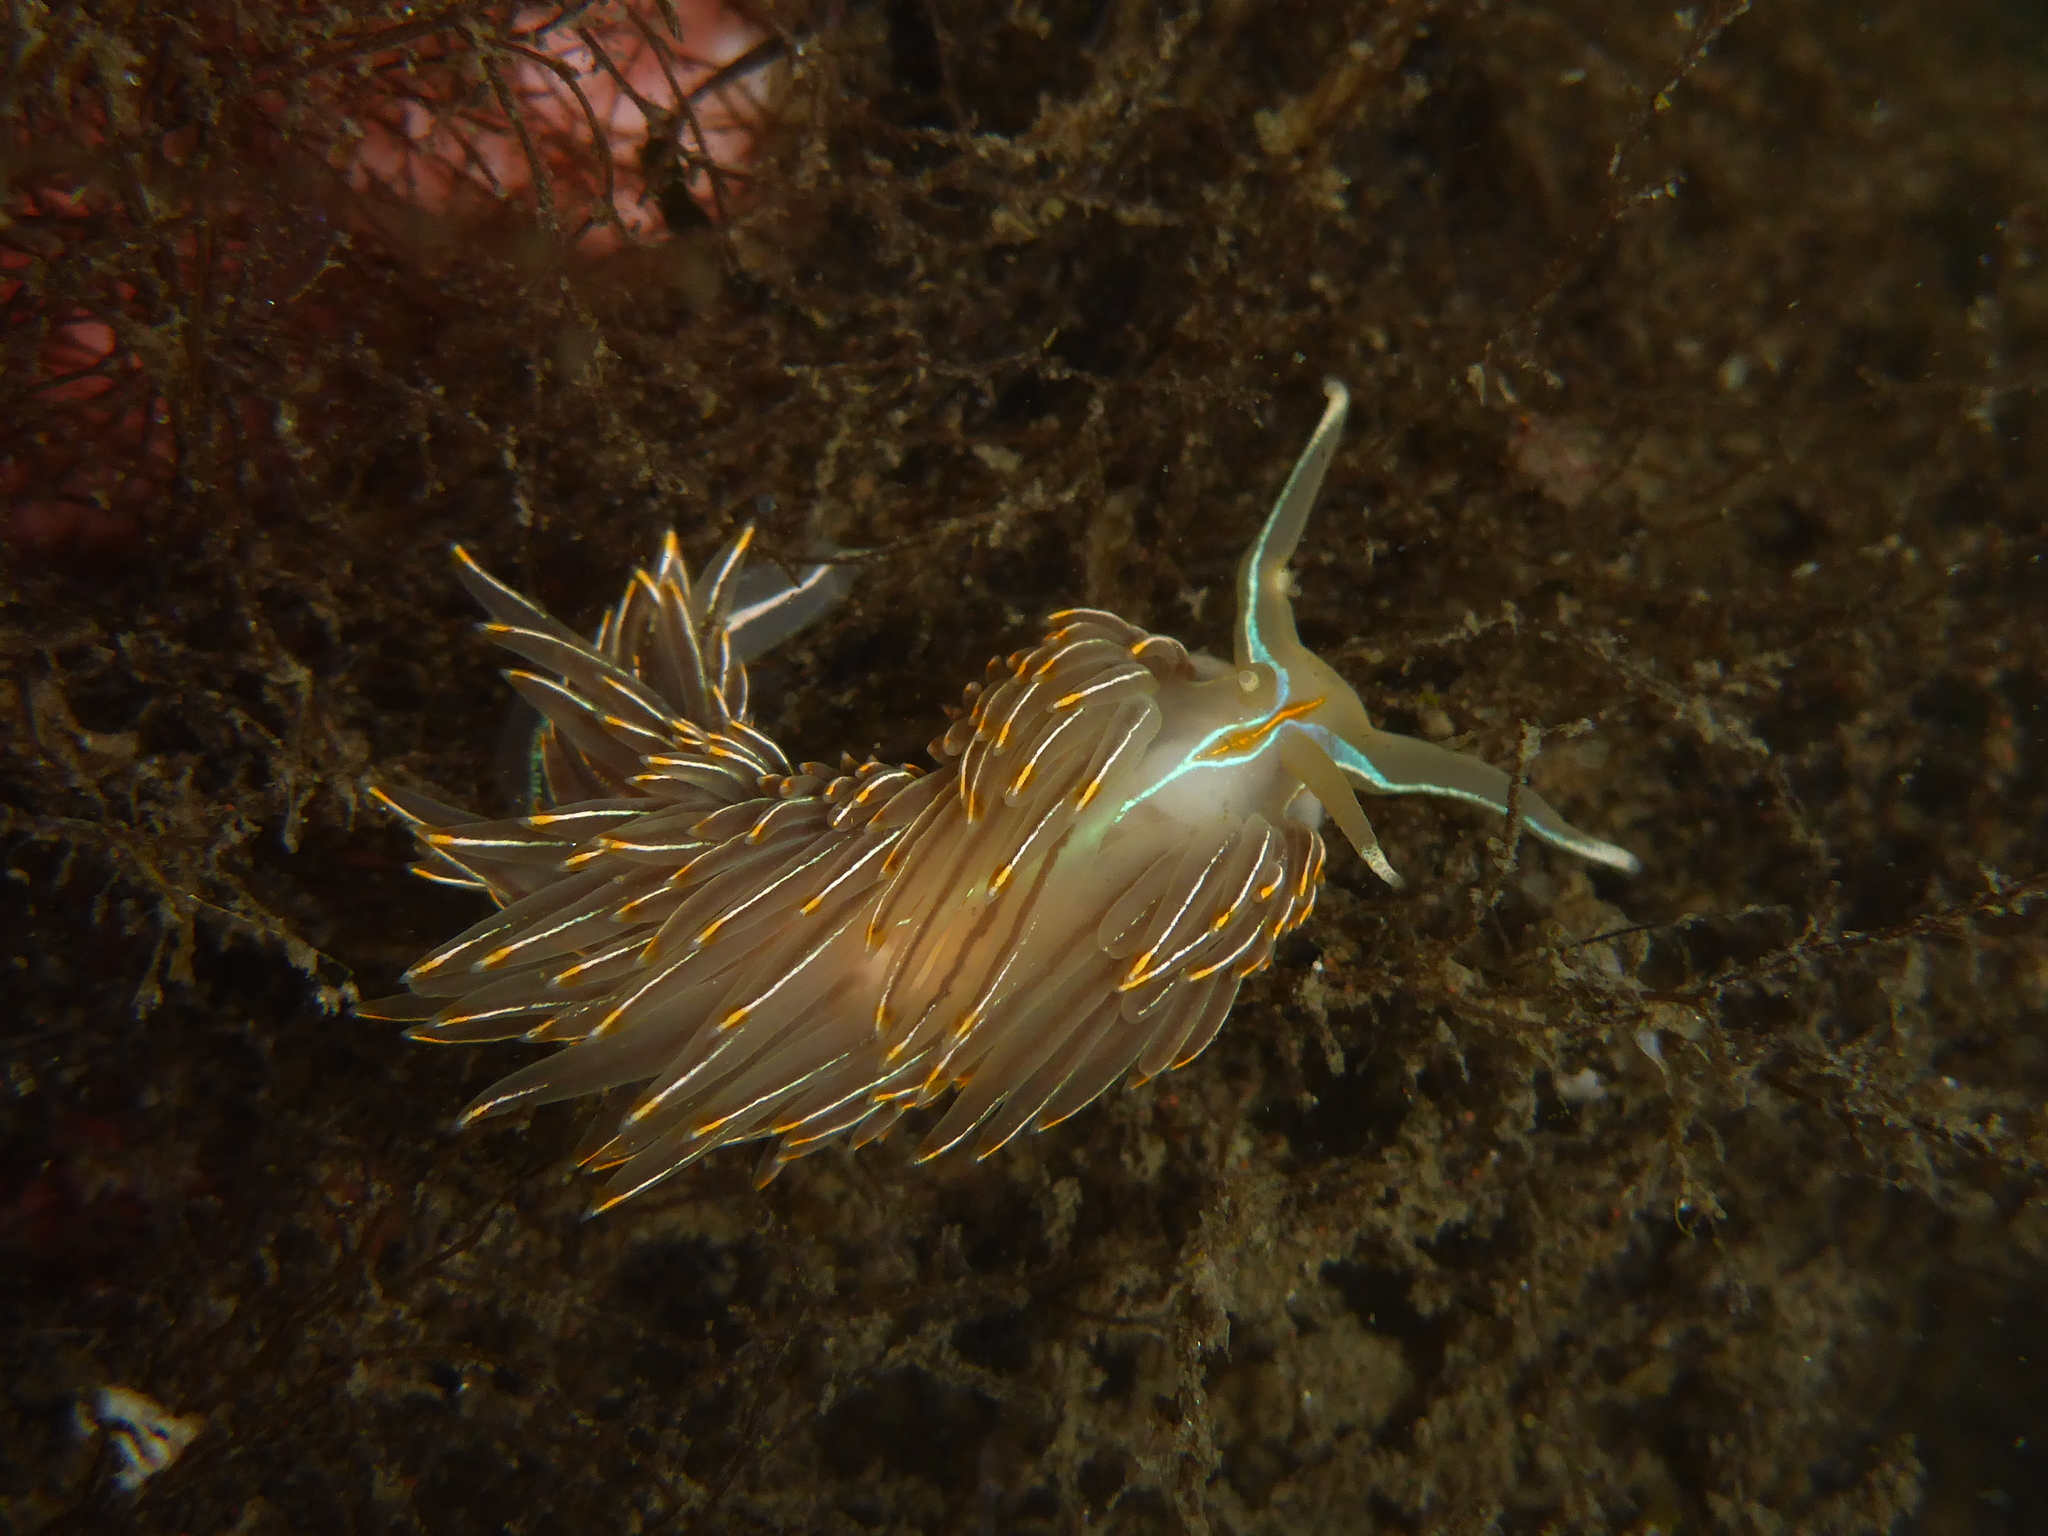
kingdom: Animalia
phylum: Mollusca
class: Gastropoda
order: Nudibranchia
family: Myrrhinidae
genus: Hermissenda
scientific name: Hermissenda crassicornis
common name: Hermissenda
